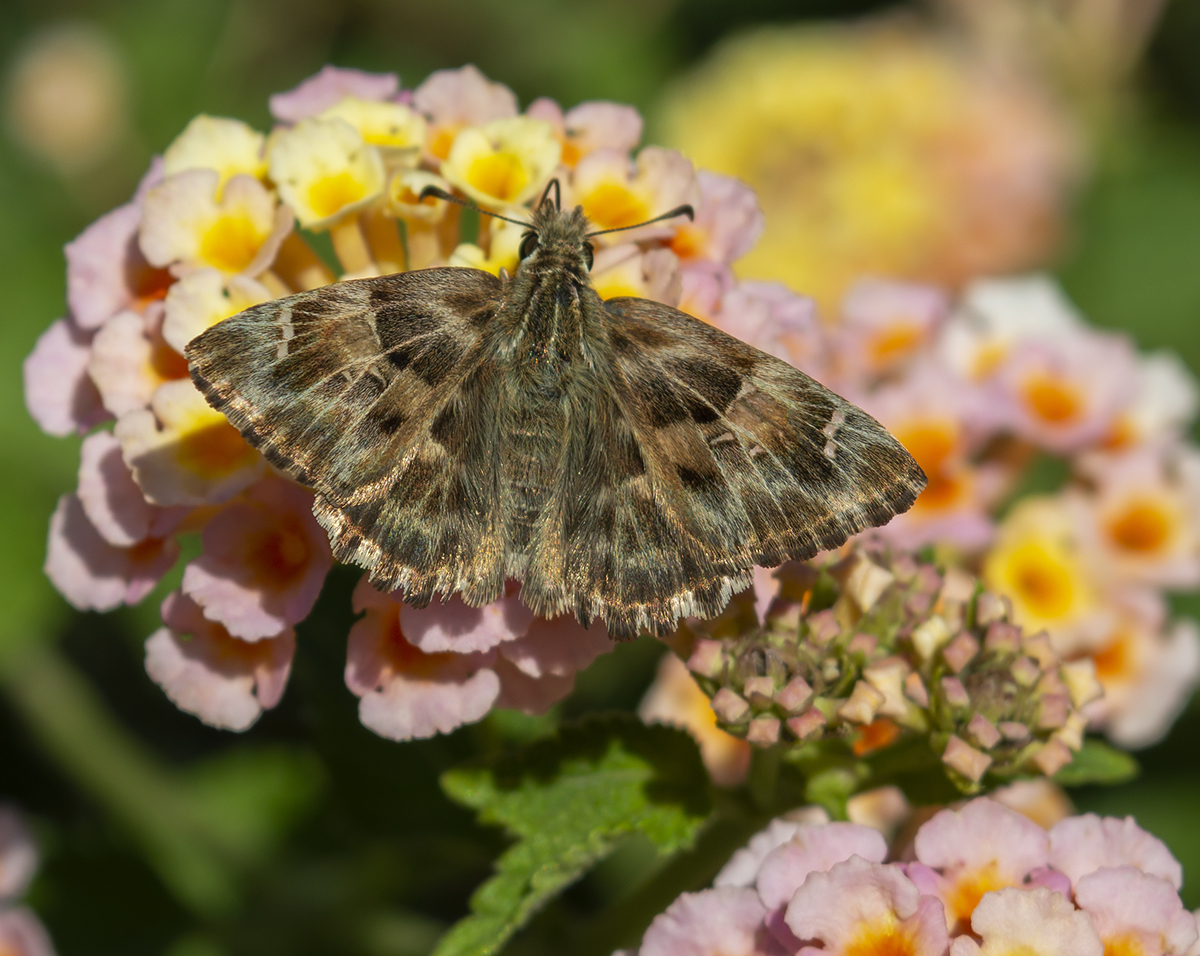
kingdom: Animalia
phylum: Arthropoda
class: Insecta
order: Lepidoptera
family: Hesperiidae
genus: Carcharodus
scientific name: Carcharodus alceae
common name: Mallow skipper
